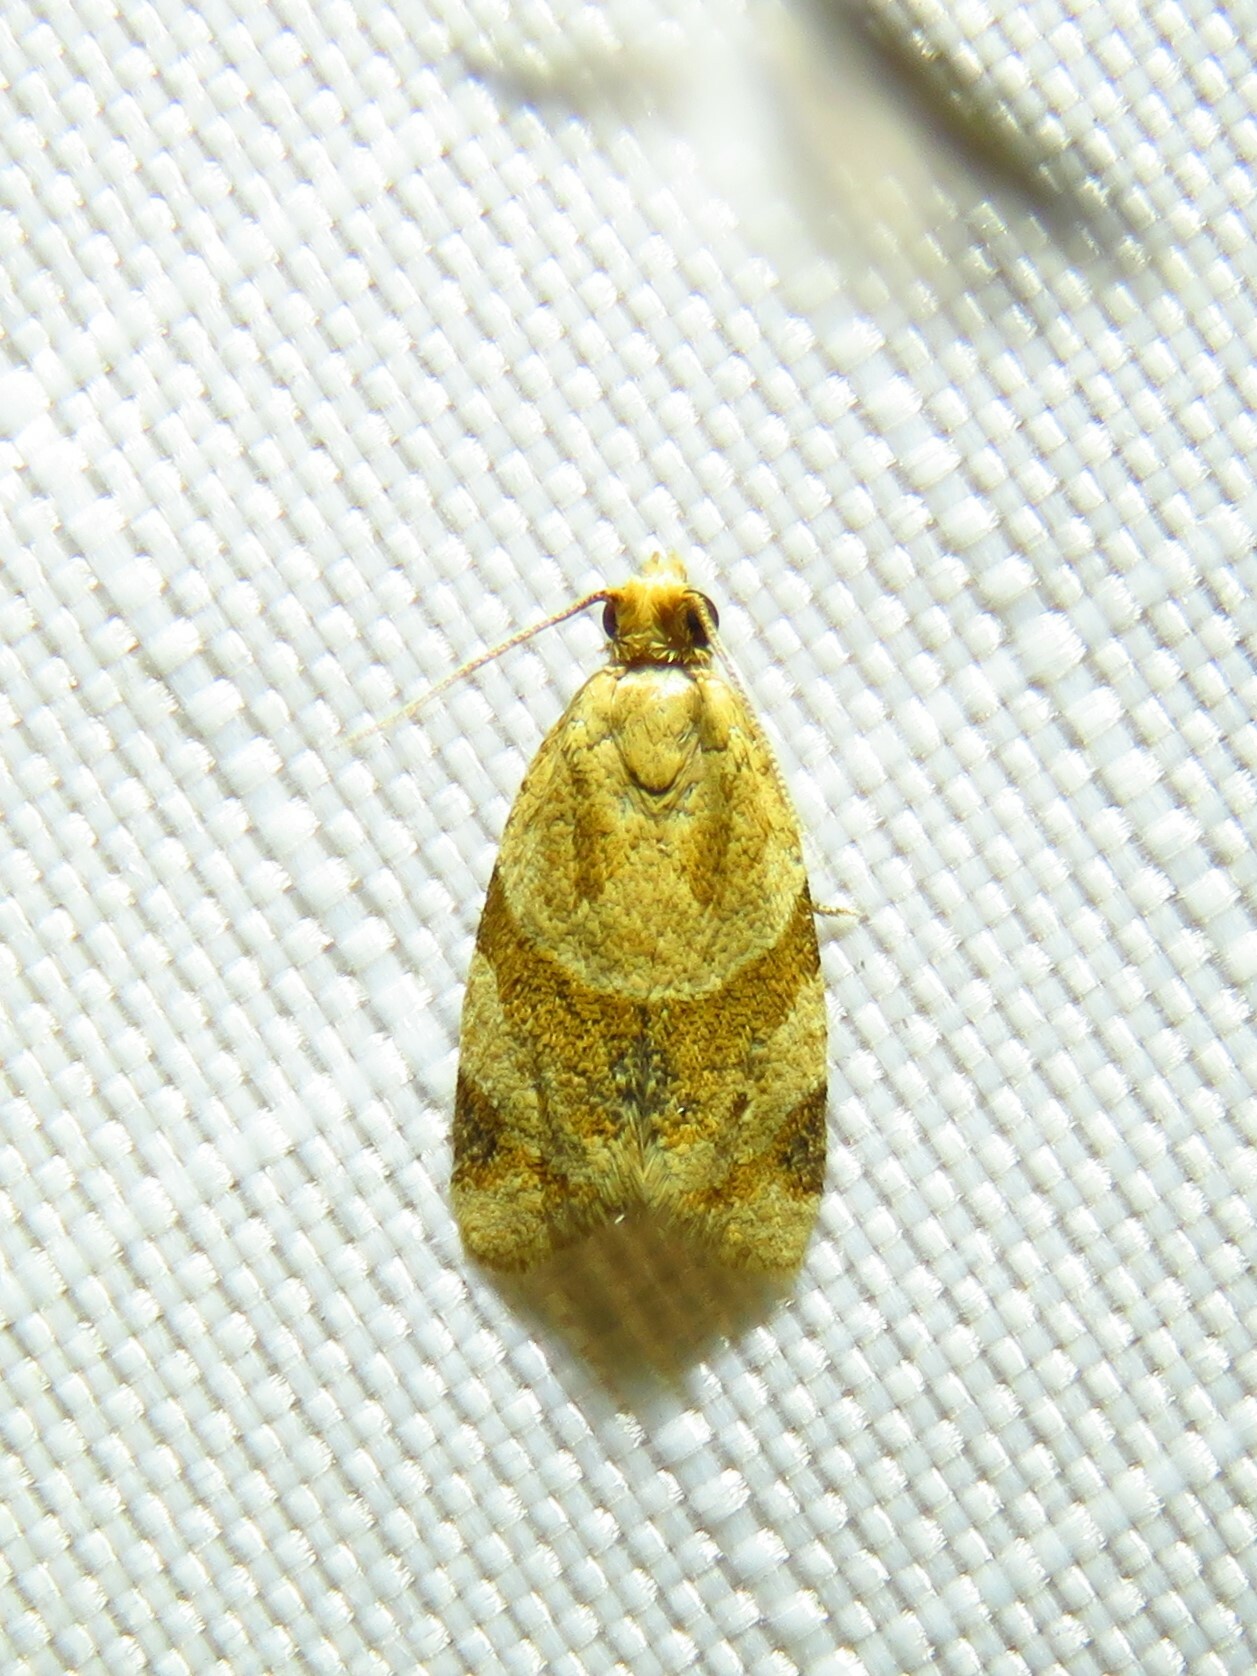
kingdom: Animalia
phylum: Arthropoda
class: Insecta
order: Lepidoptera
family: Tortricidae
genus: Clepsis
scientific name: Clepsis peritana
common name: Garden tortrix
